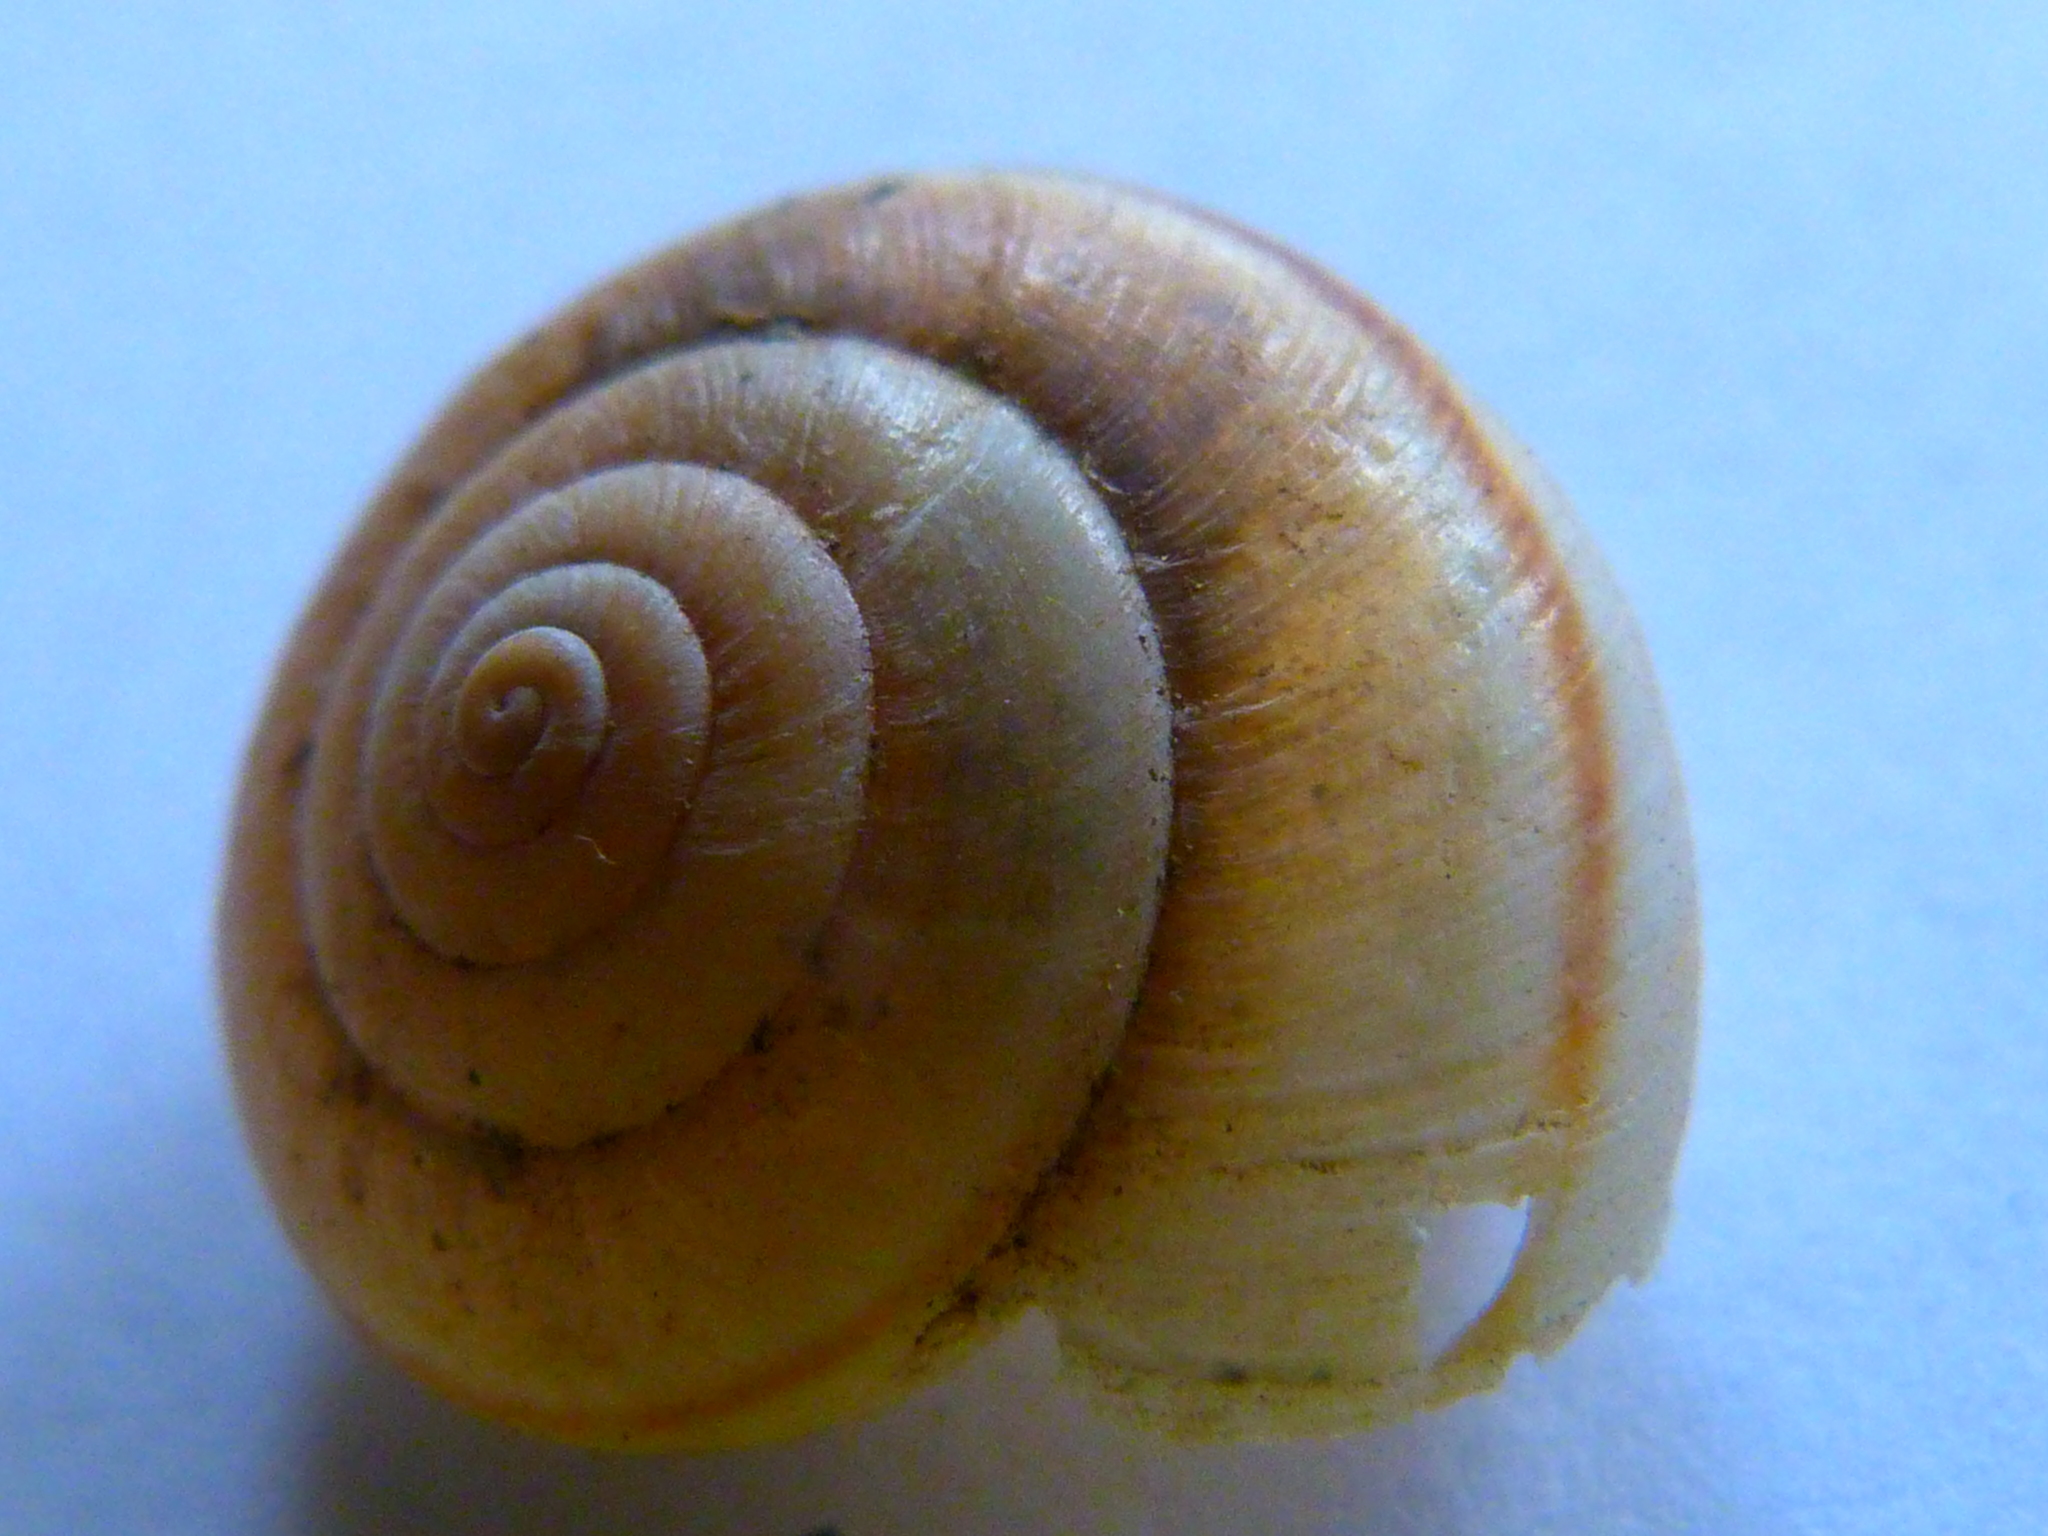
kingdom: Animalia
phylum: Mollusca
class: Gastropoda
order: Stylommatophora
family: Xanthonychidae
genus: Helminthoglypta
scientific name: Helminthoglypta traskii
